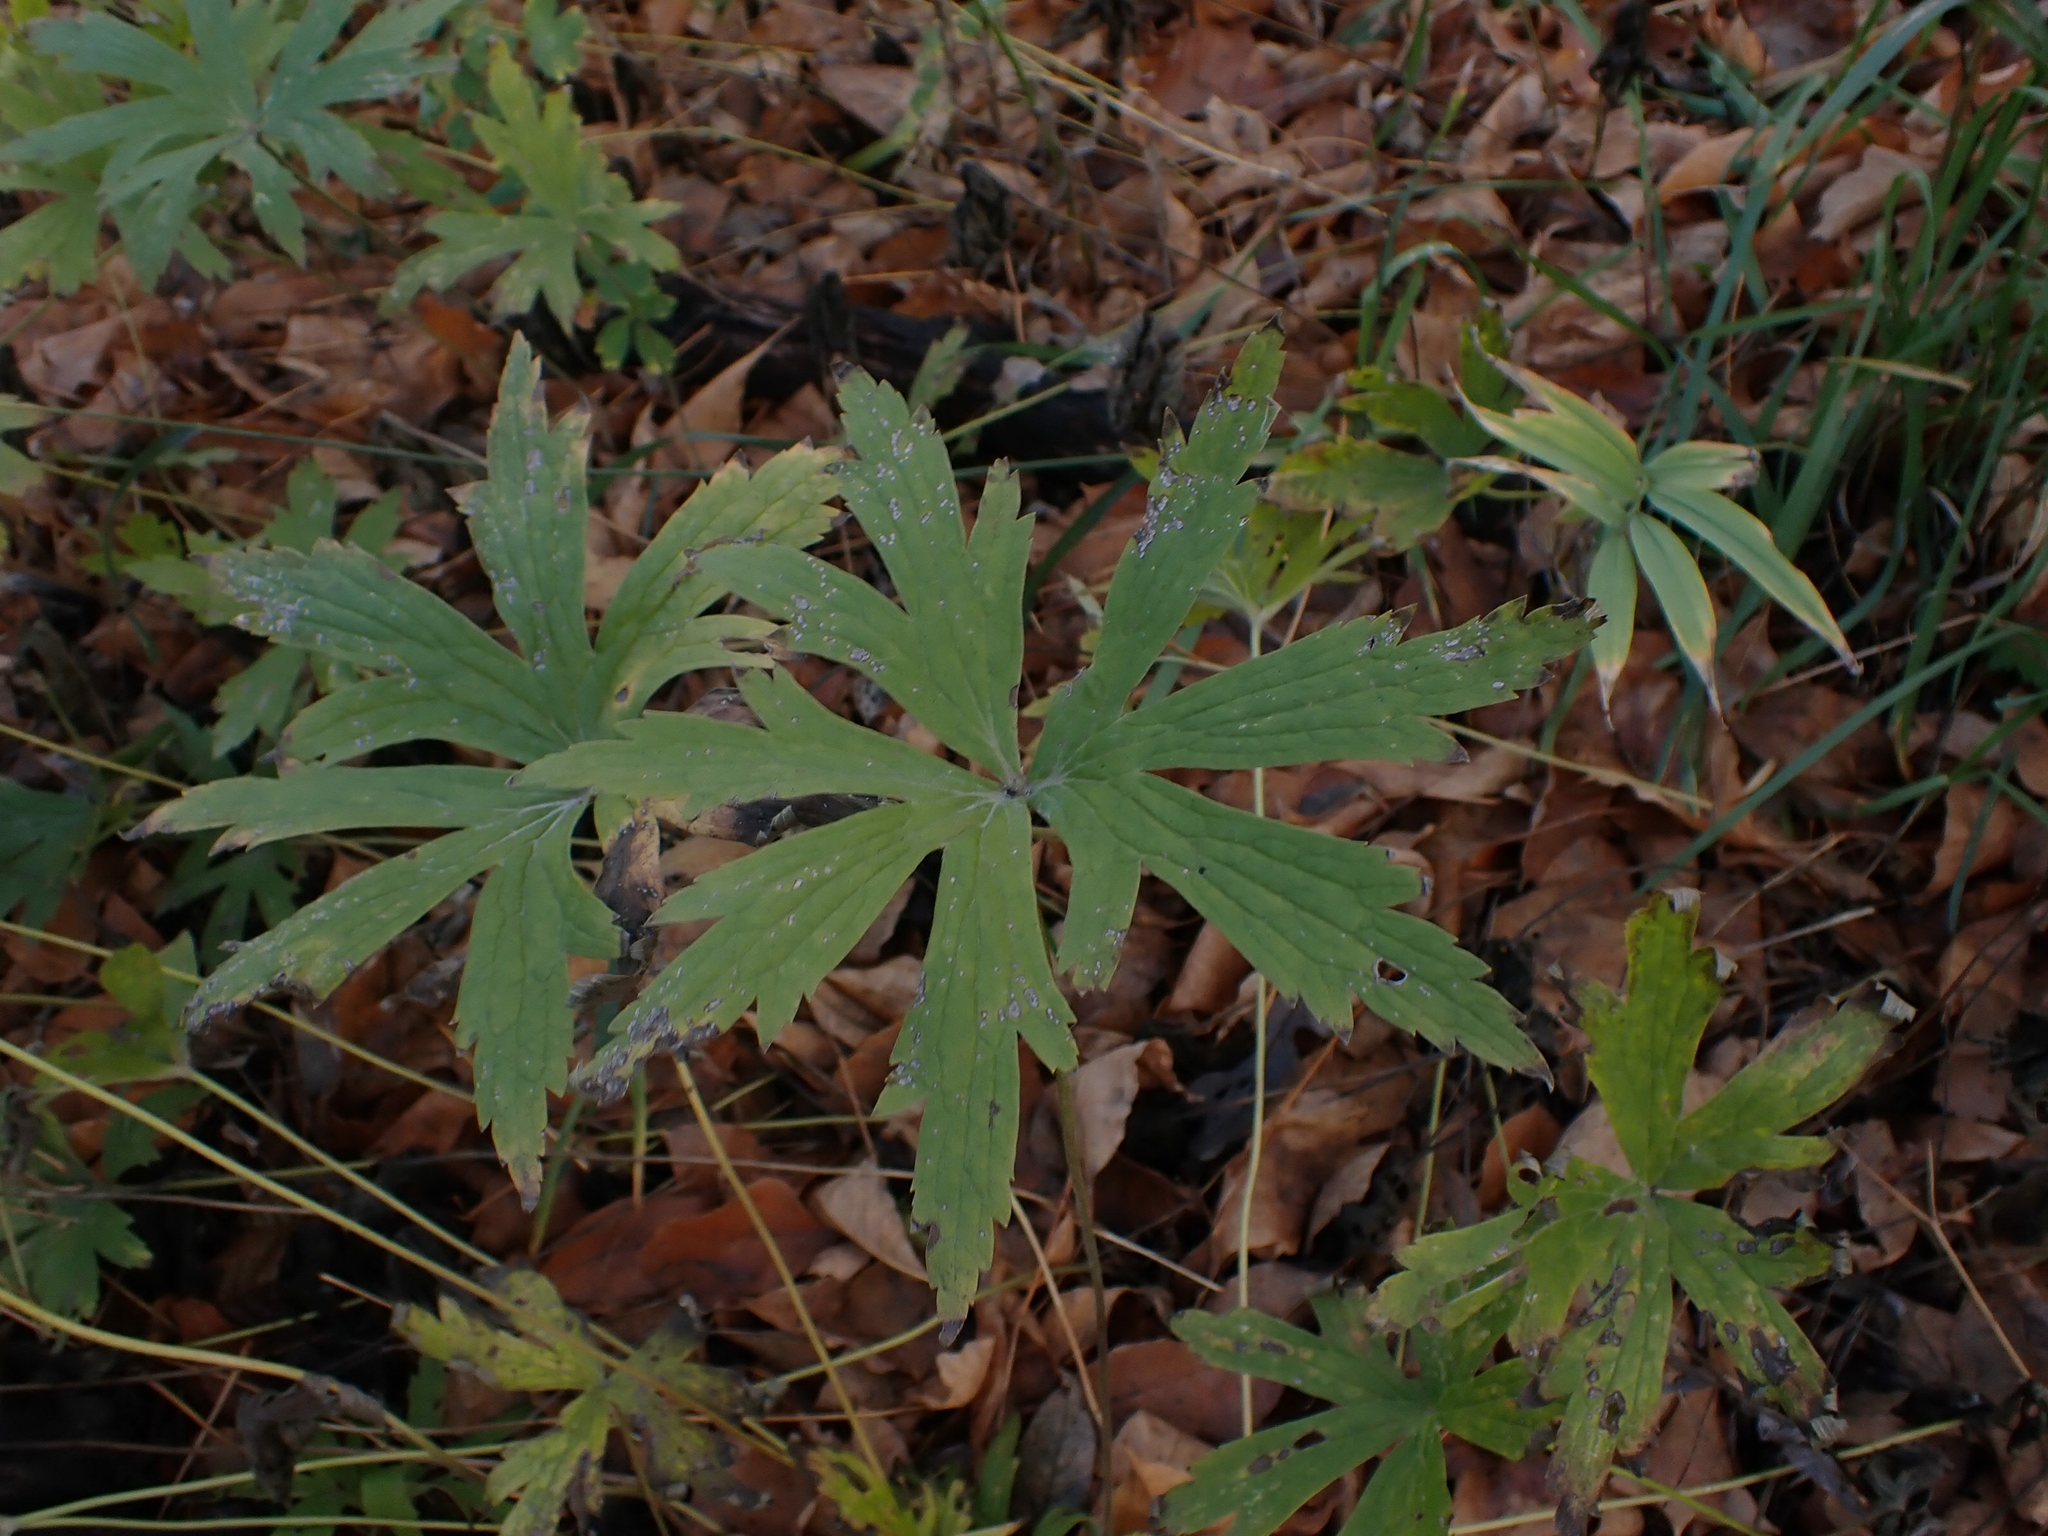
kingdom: Plantae
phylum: Tracheophyta
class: Magnoliopsida
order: Ranunculales
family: Ranunculaceae
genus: Anemonastrum
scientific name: Anemonastrum canadense
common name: Canada anemone
